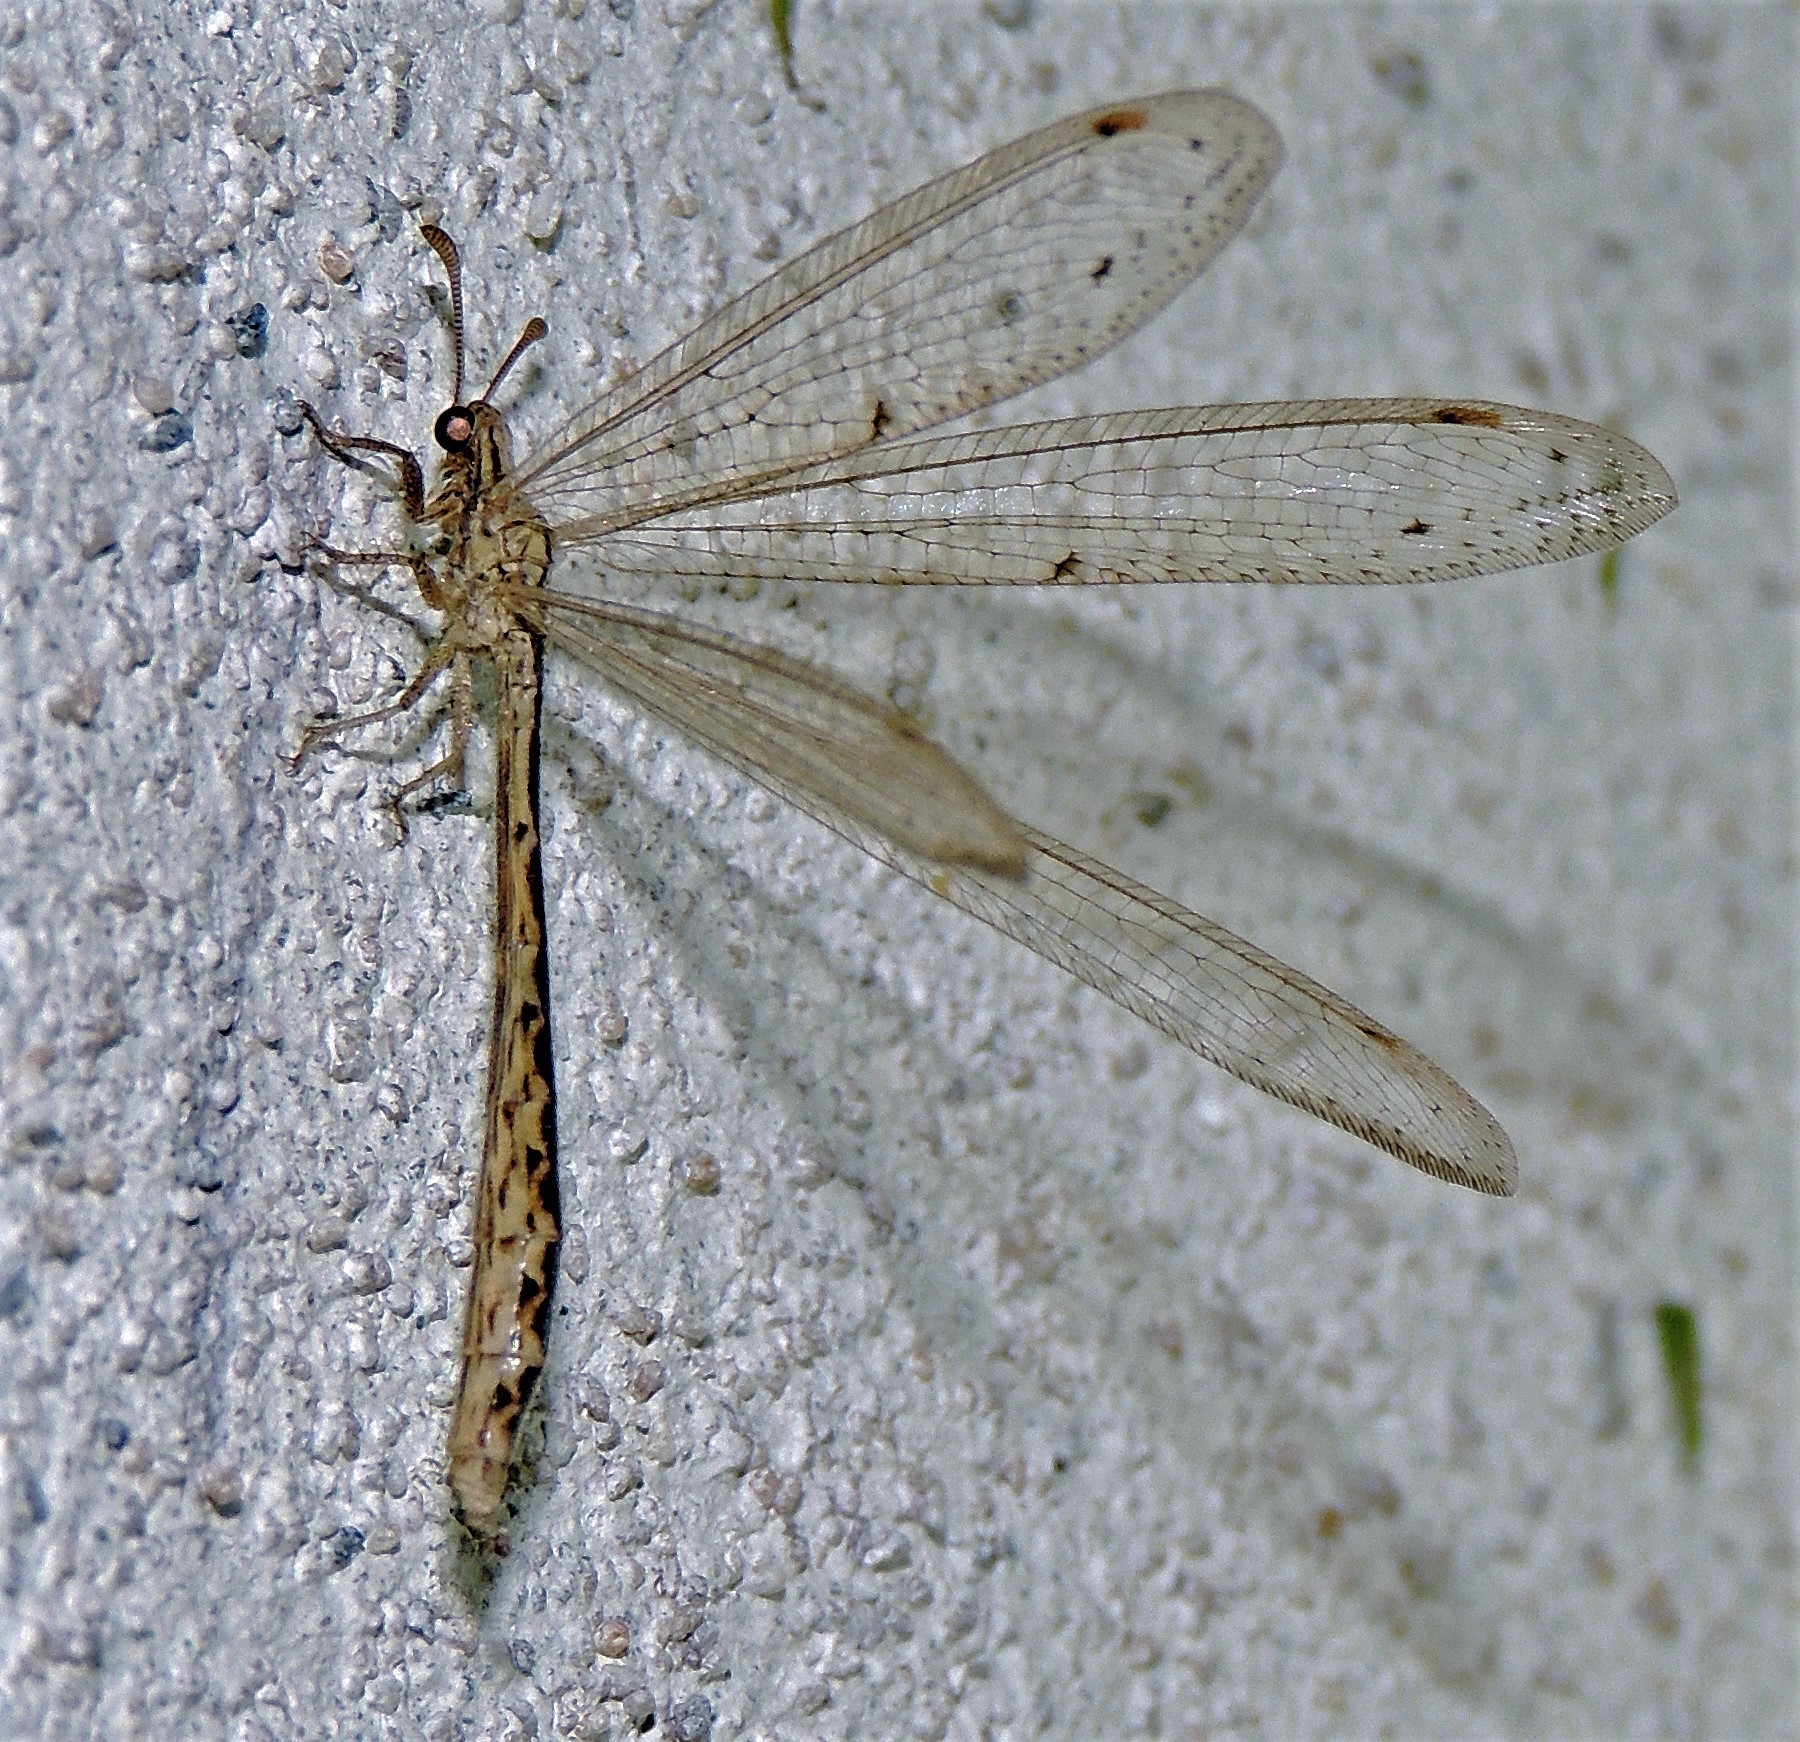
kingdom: Animalia
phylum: Arthropoda
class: Insecta
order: Neuroptera
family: Myrmeleontidae
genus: Austroleon
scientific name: Austroleon dispar
